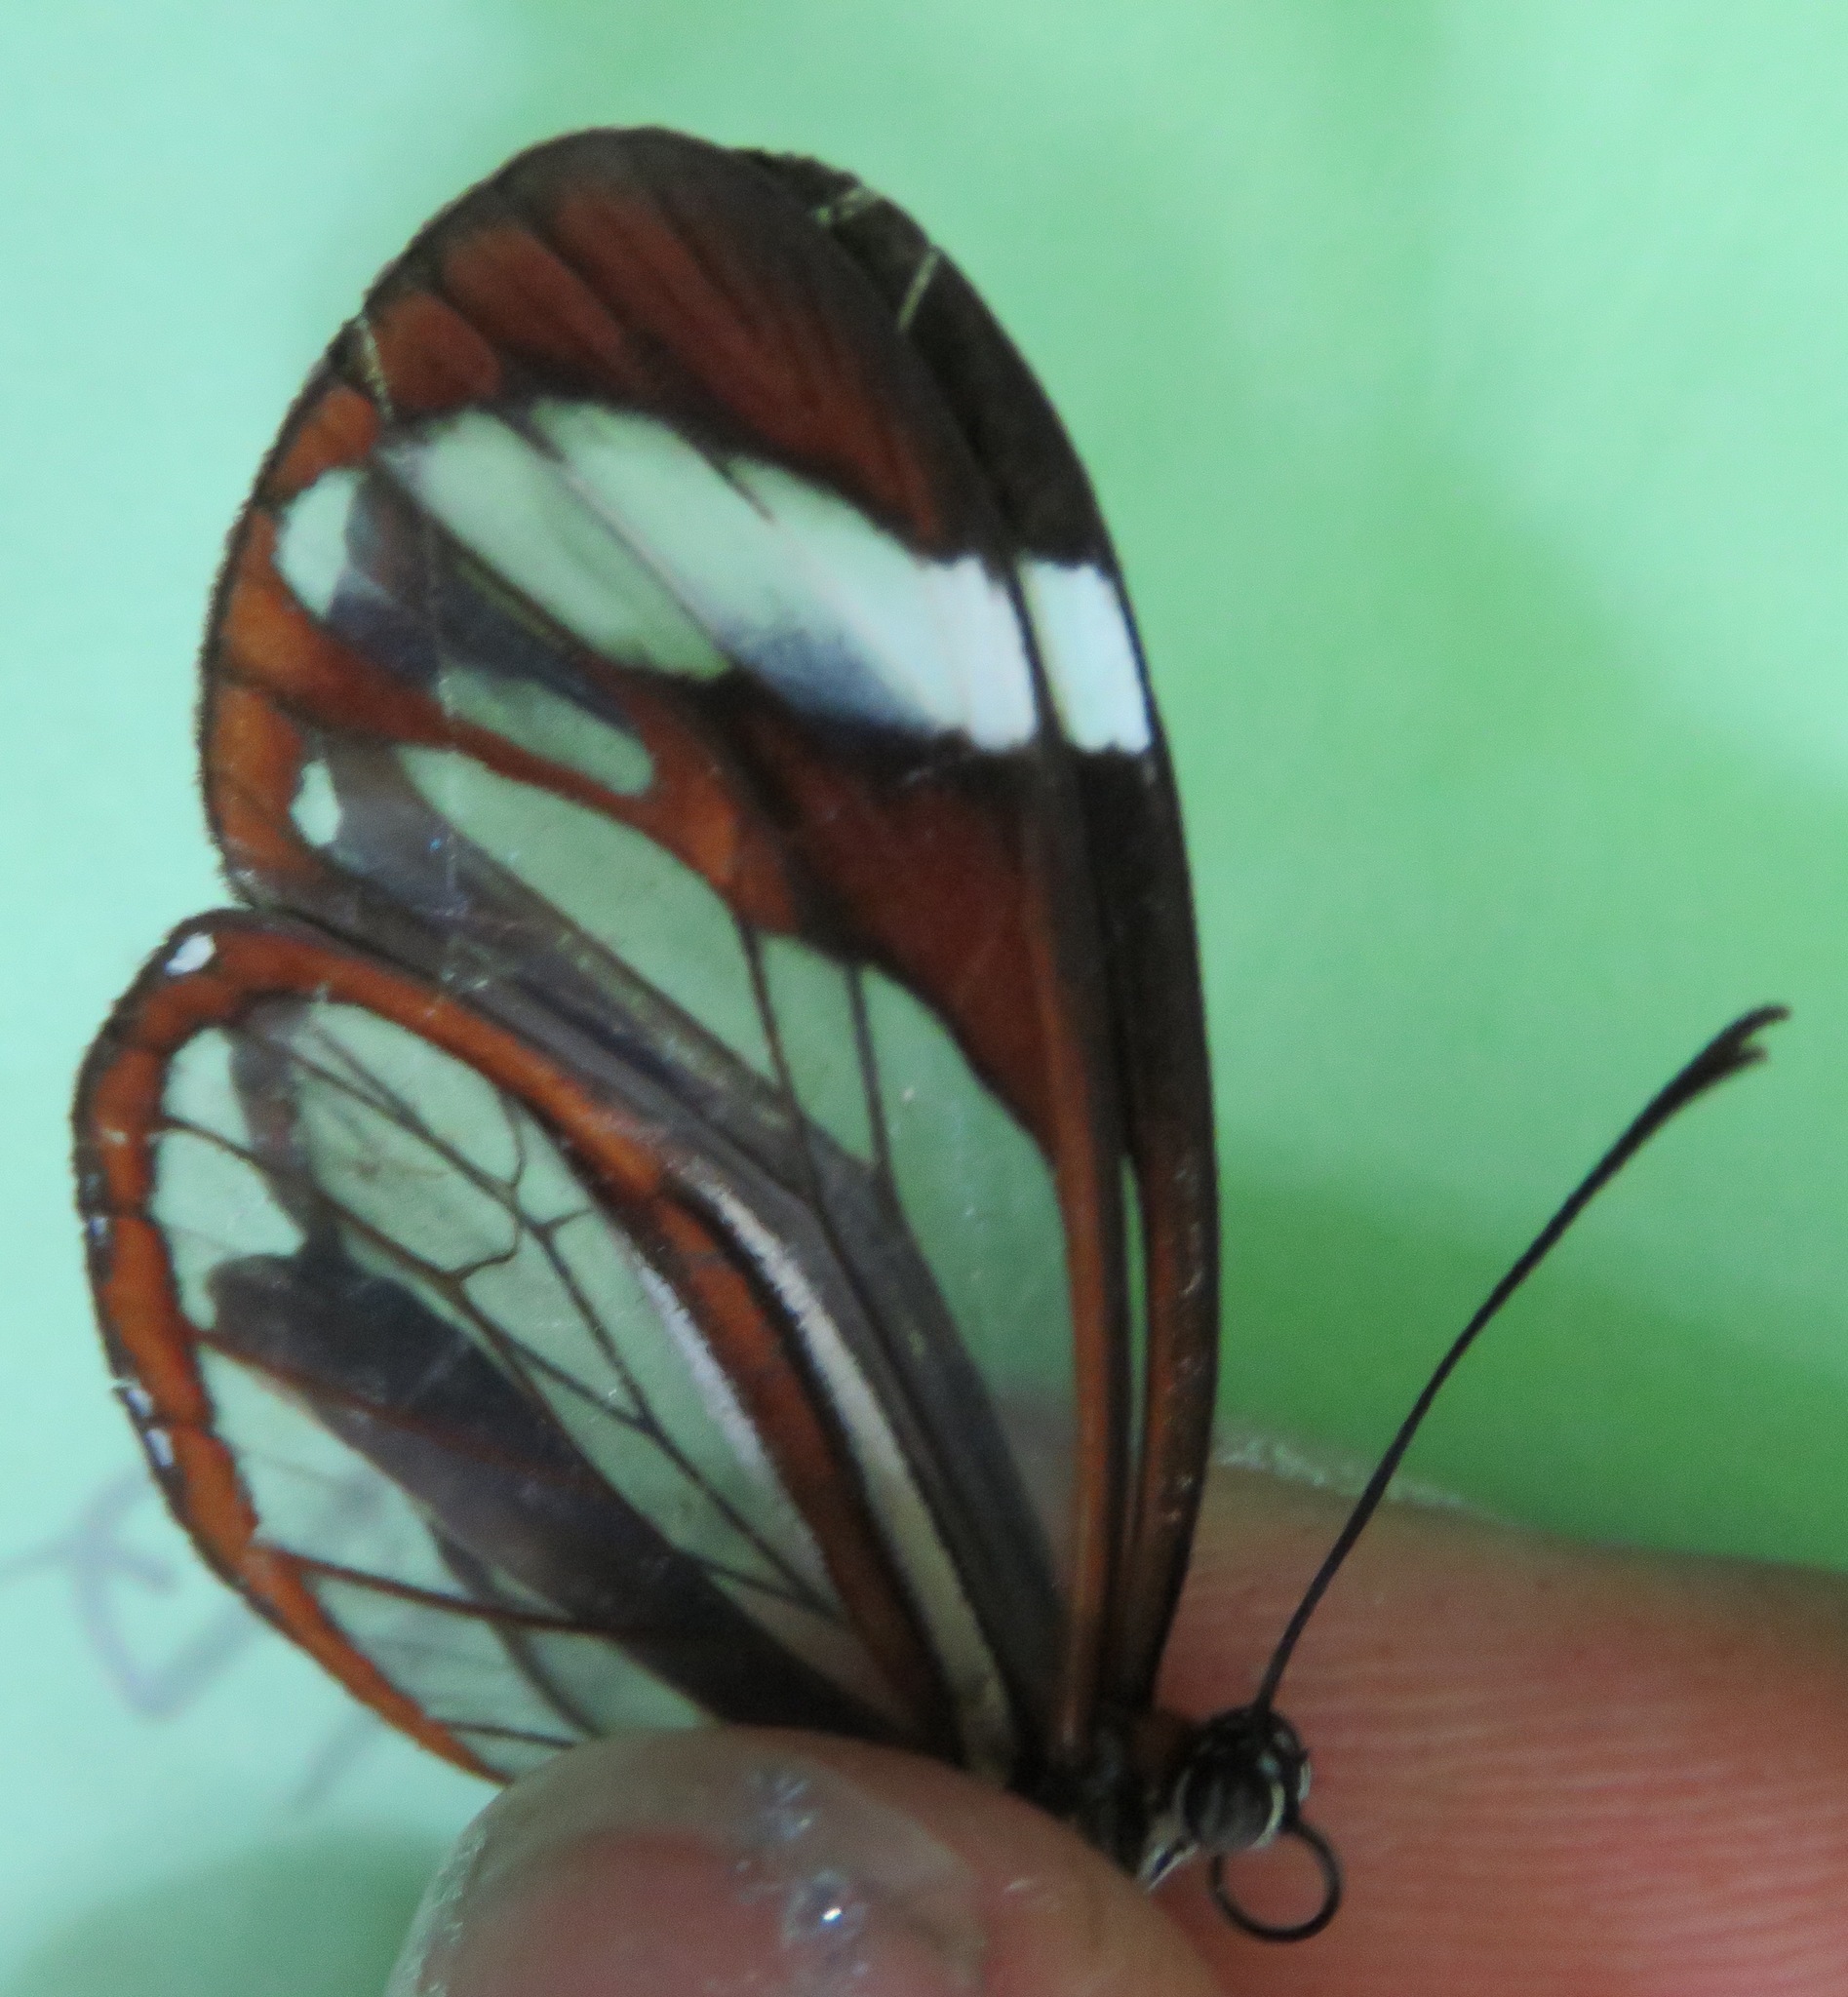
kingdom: Animalia
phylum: Arthropoda
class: Insecta
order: Lepidoptera
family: Nymphalidae
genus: Ithomia
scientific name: Ithomia patilla
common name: Patilla clearwing
